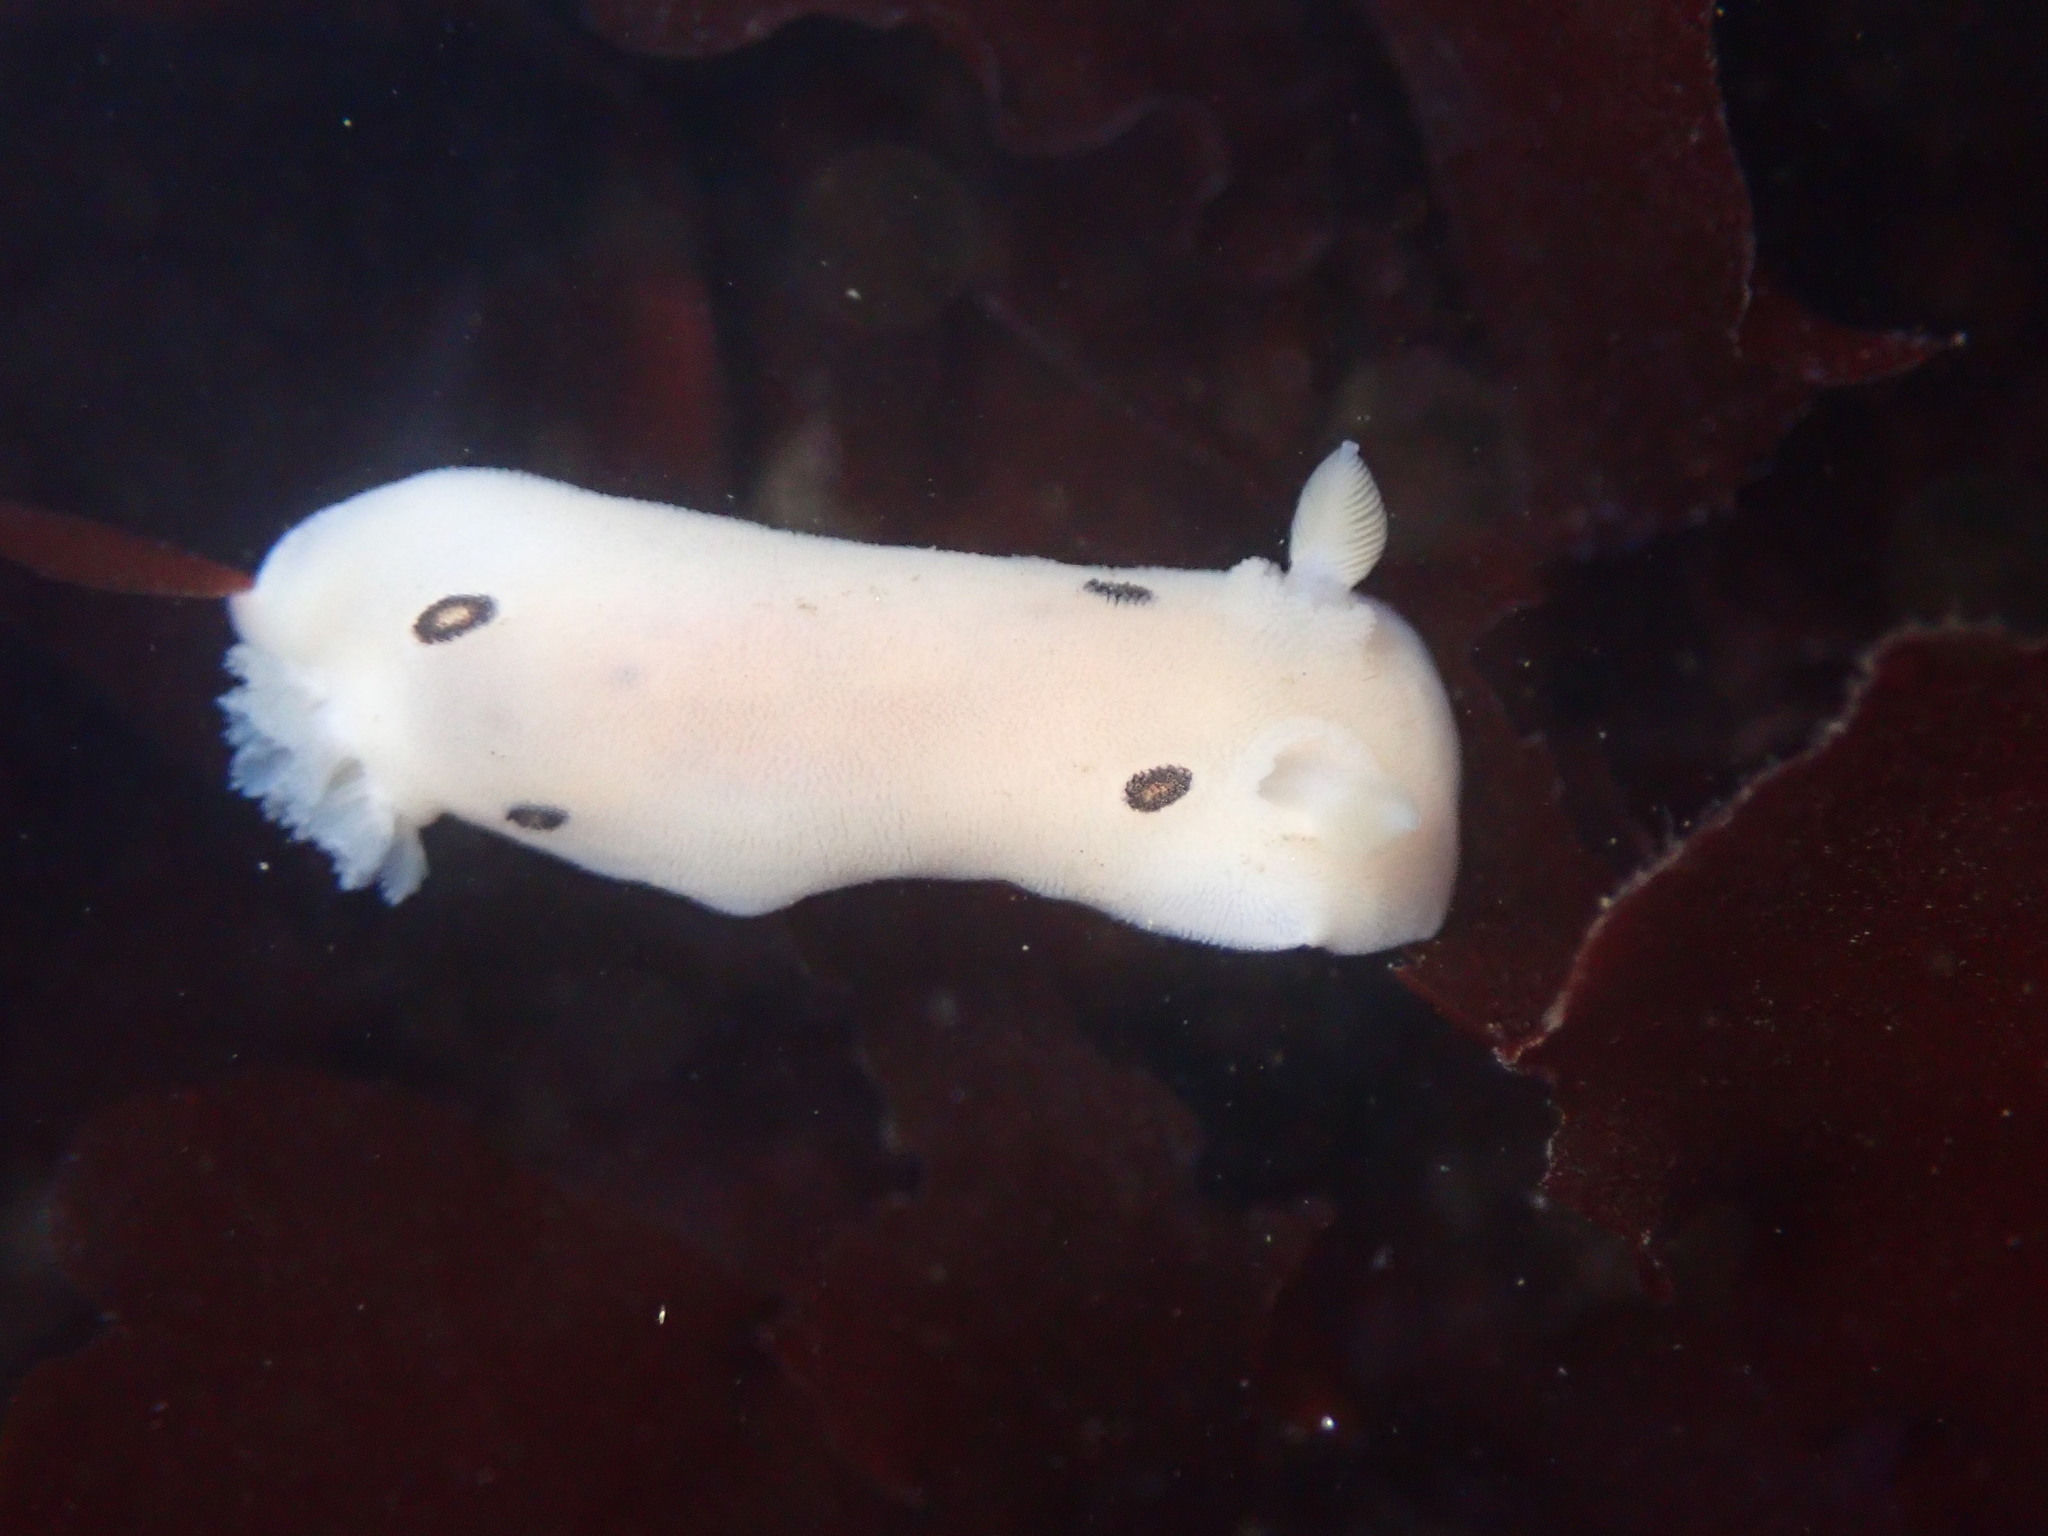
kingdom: Animalia
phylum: Mollusca
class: Gastropoda
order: Nudibranchia
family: Discodorididae
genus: Diaulula
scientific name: Diaulula sandiegensis
